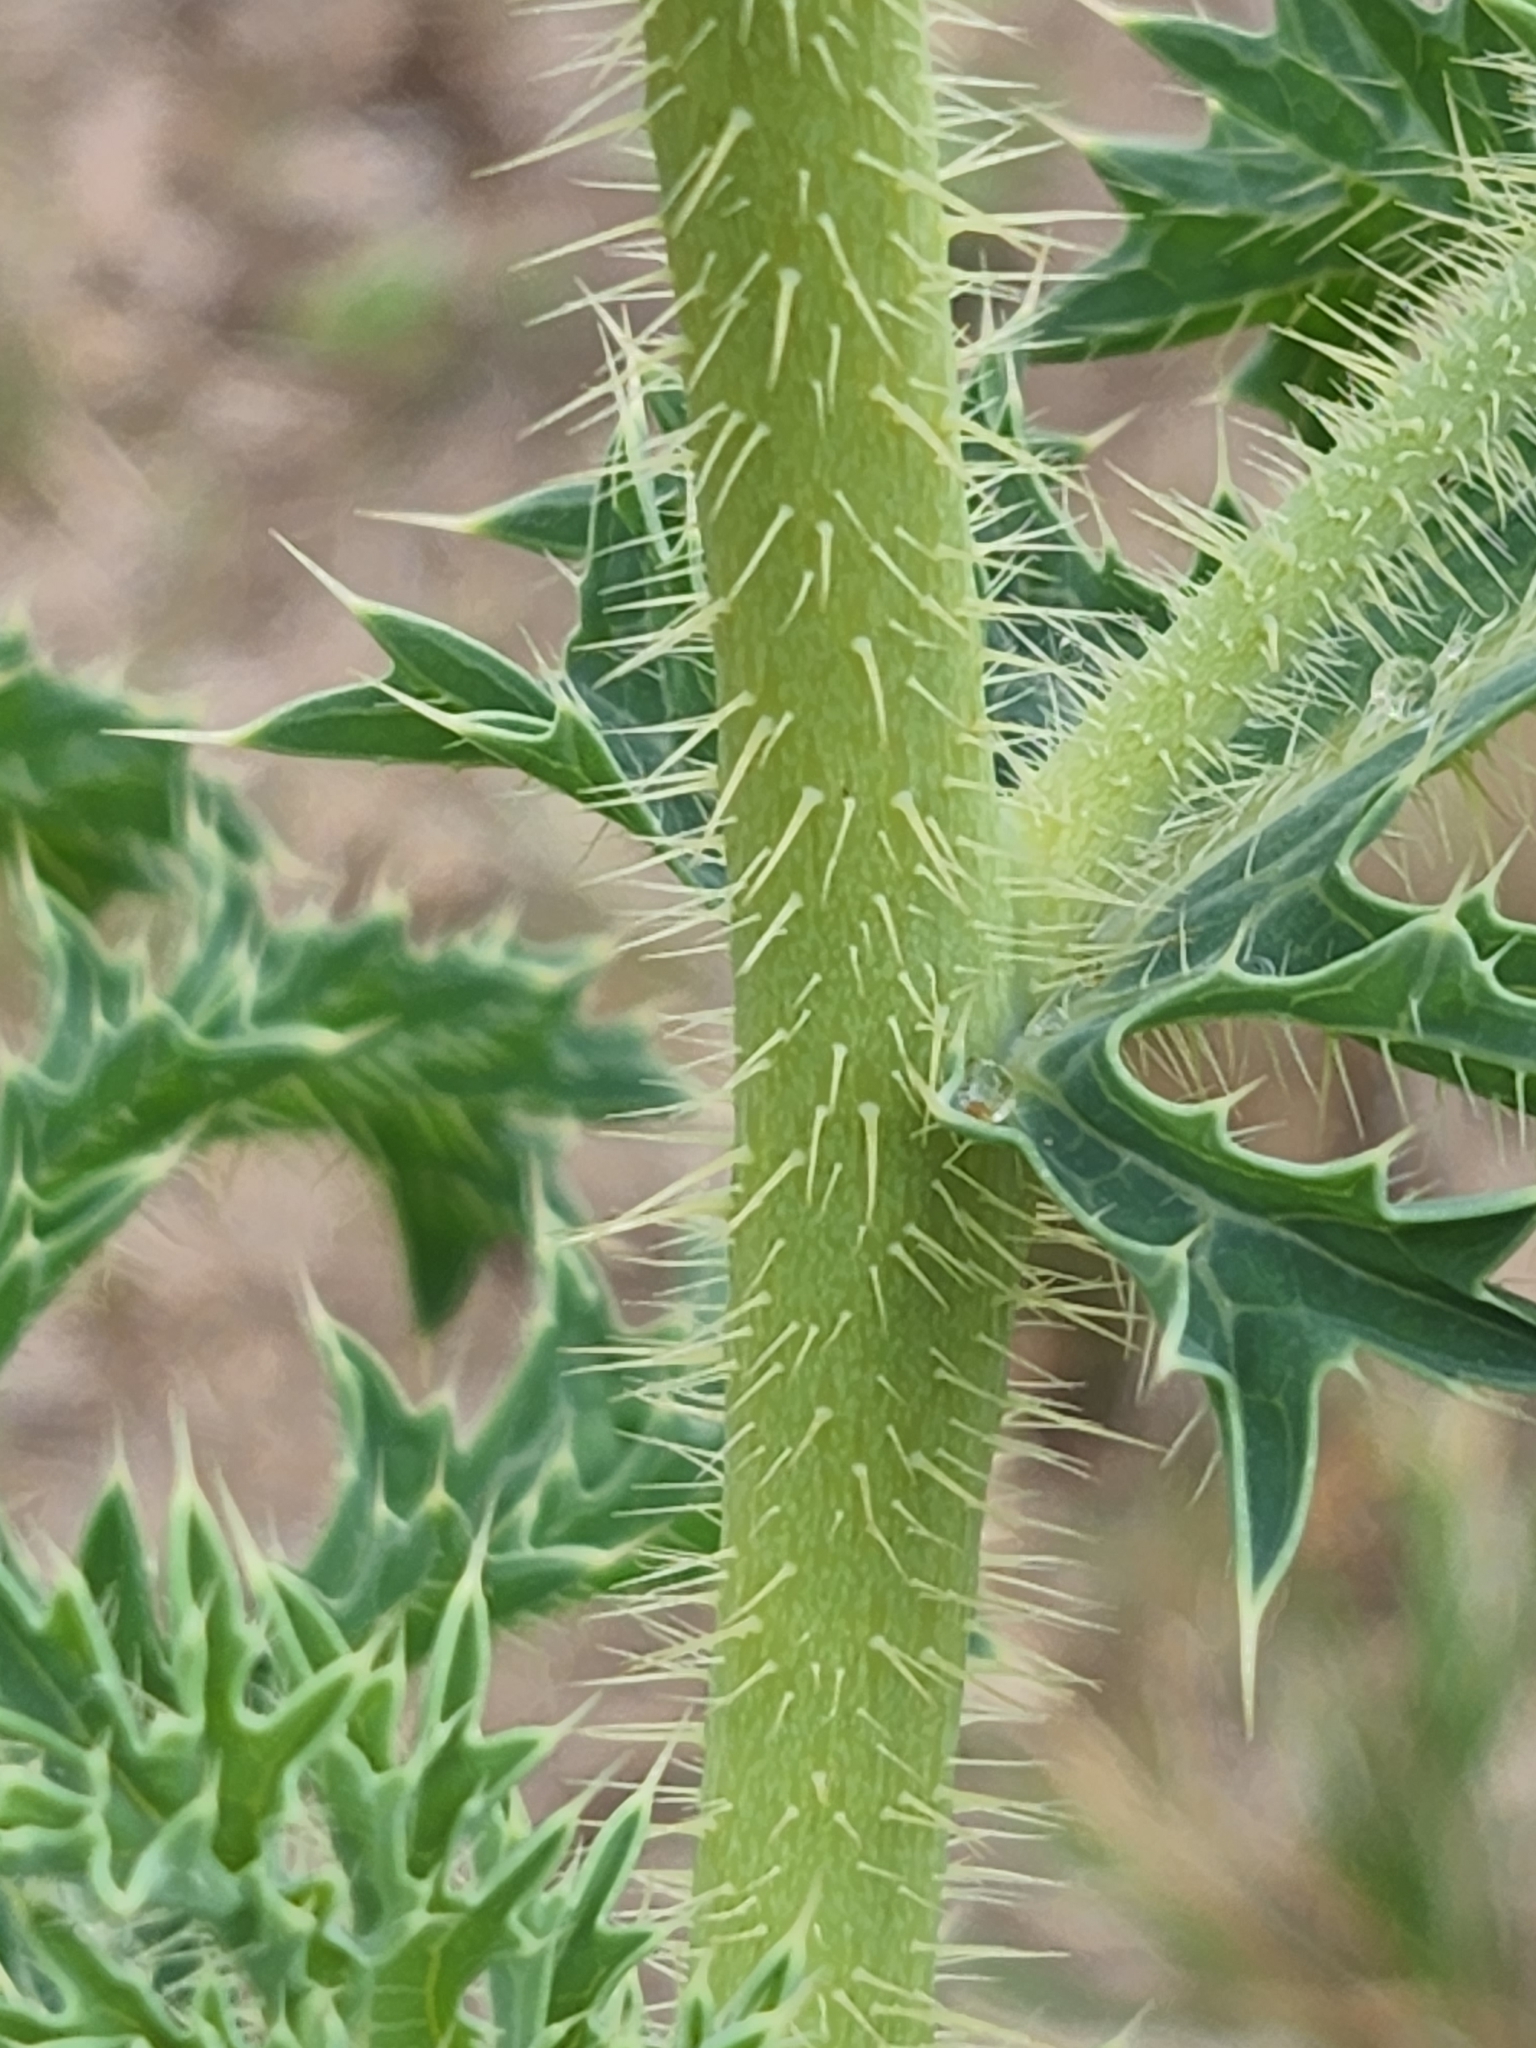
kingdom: Plantae
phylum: Tracheophyta
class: Magnoliopsida
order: Ranunculales
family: Papaveraceae
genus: Argemone
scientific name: Argemone aurantiaca
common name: Texas prickly-poppy
